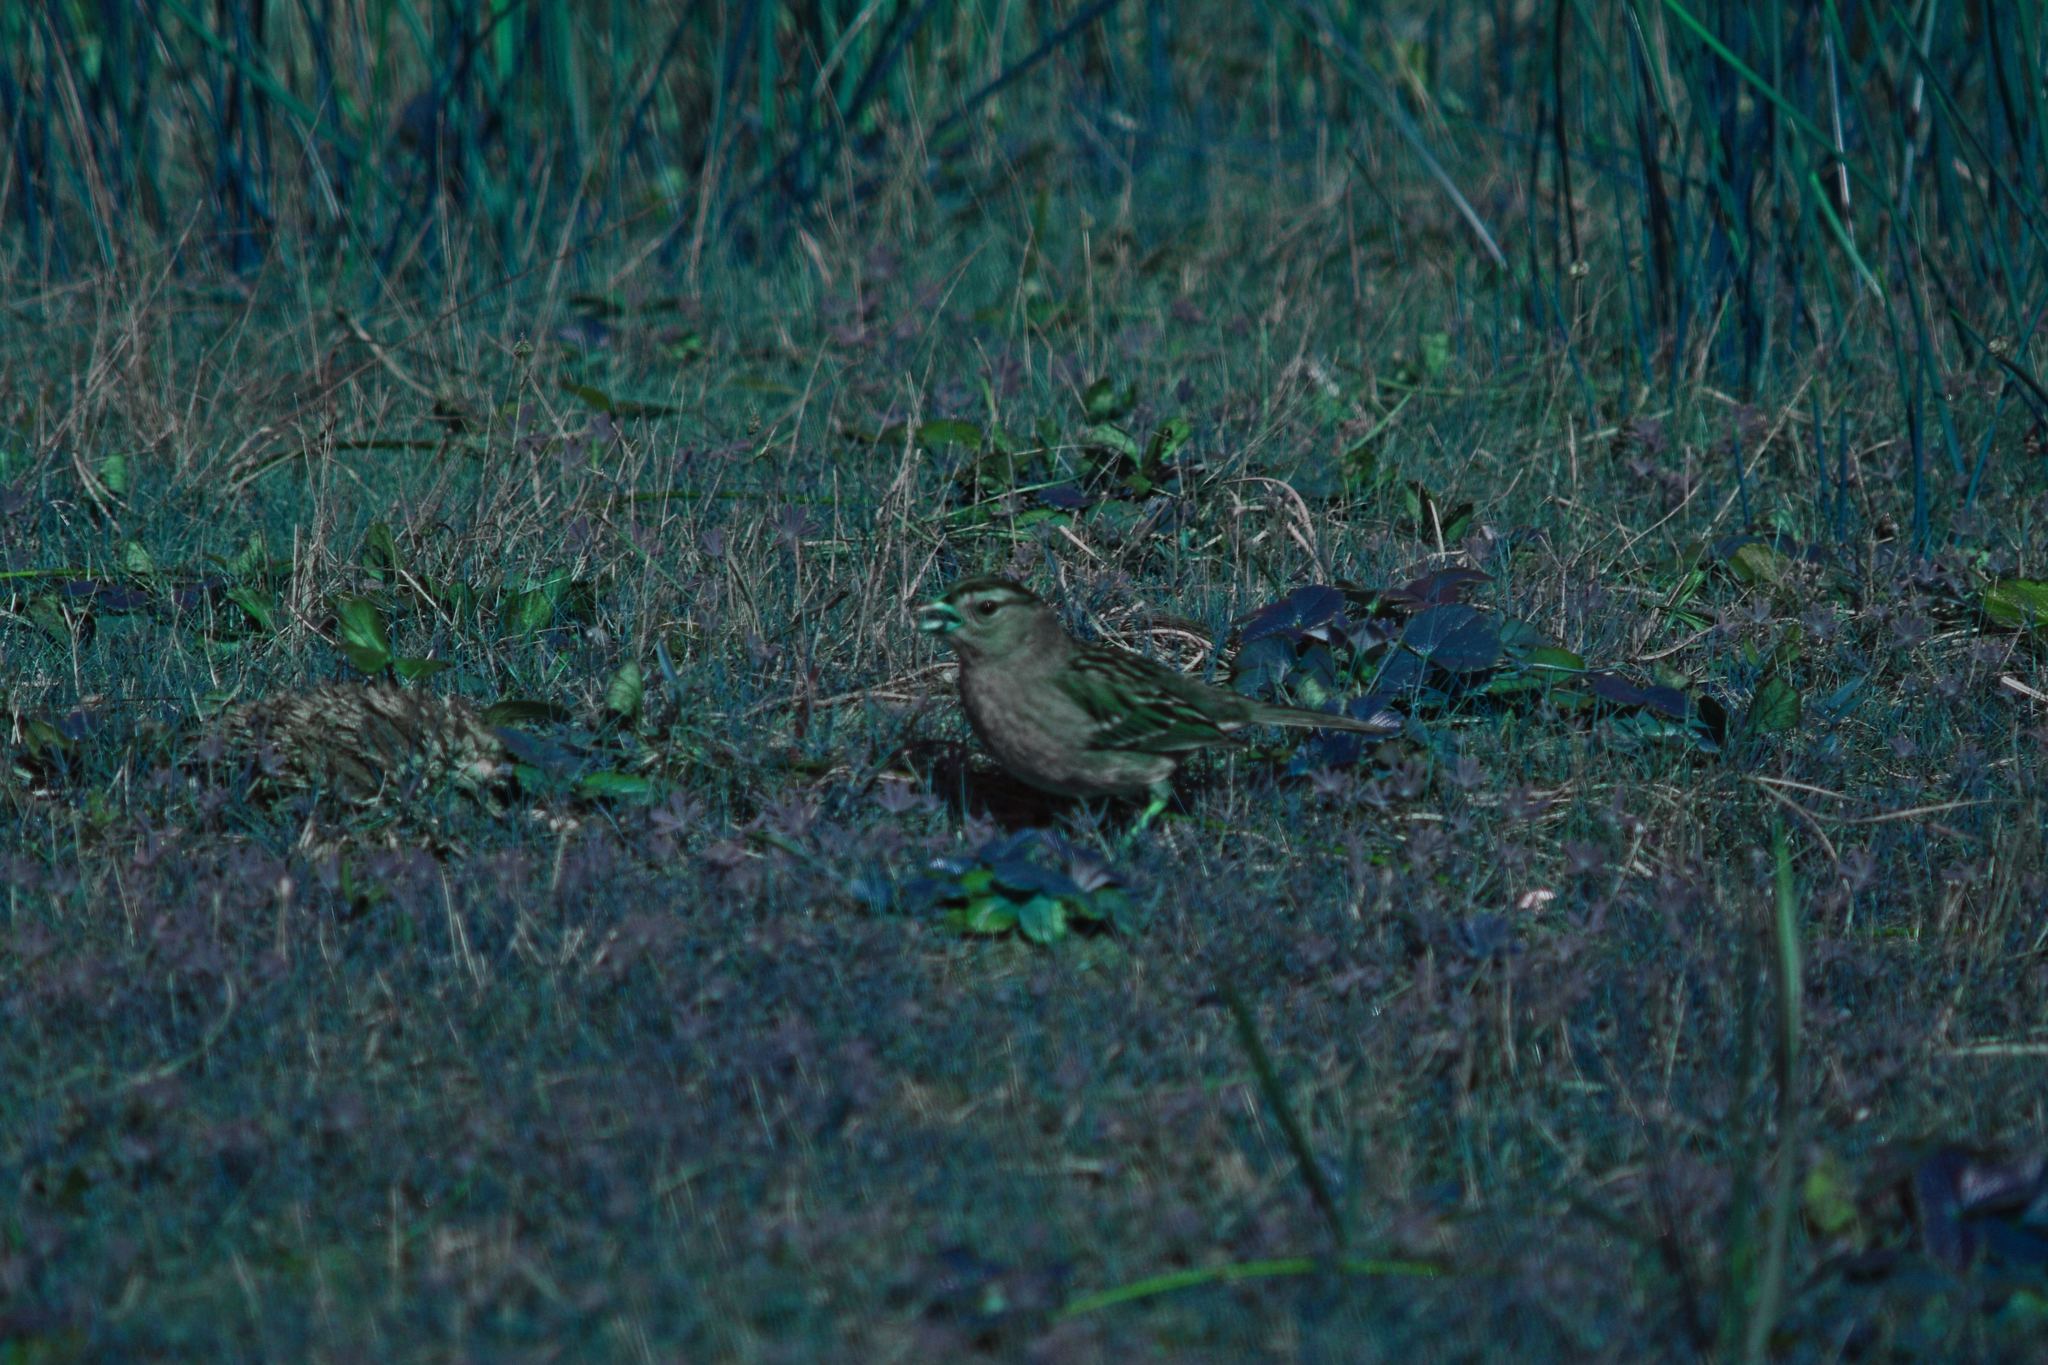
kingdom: Animalia
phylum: Chordata
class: Aves
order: Passeriformes
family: Passerellidae
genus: Zonotrichia
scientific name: Zonotrichia leucophrys
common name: White-crowned sparrow
